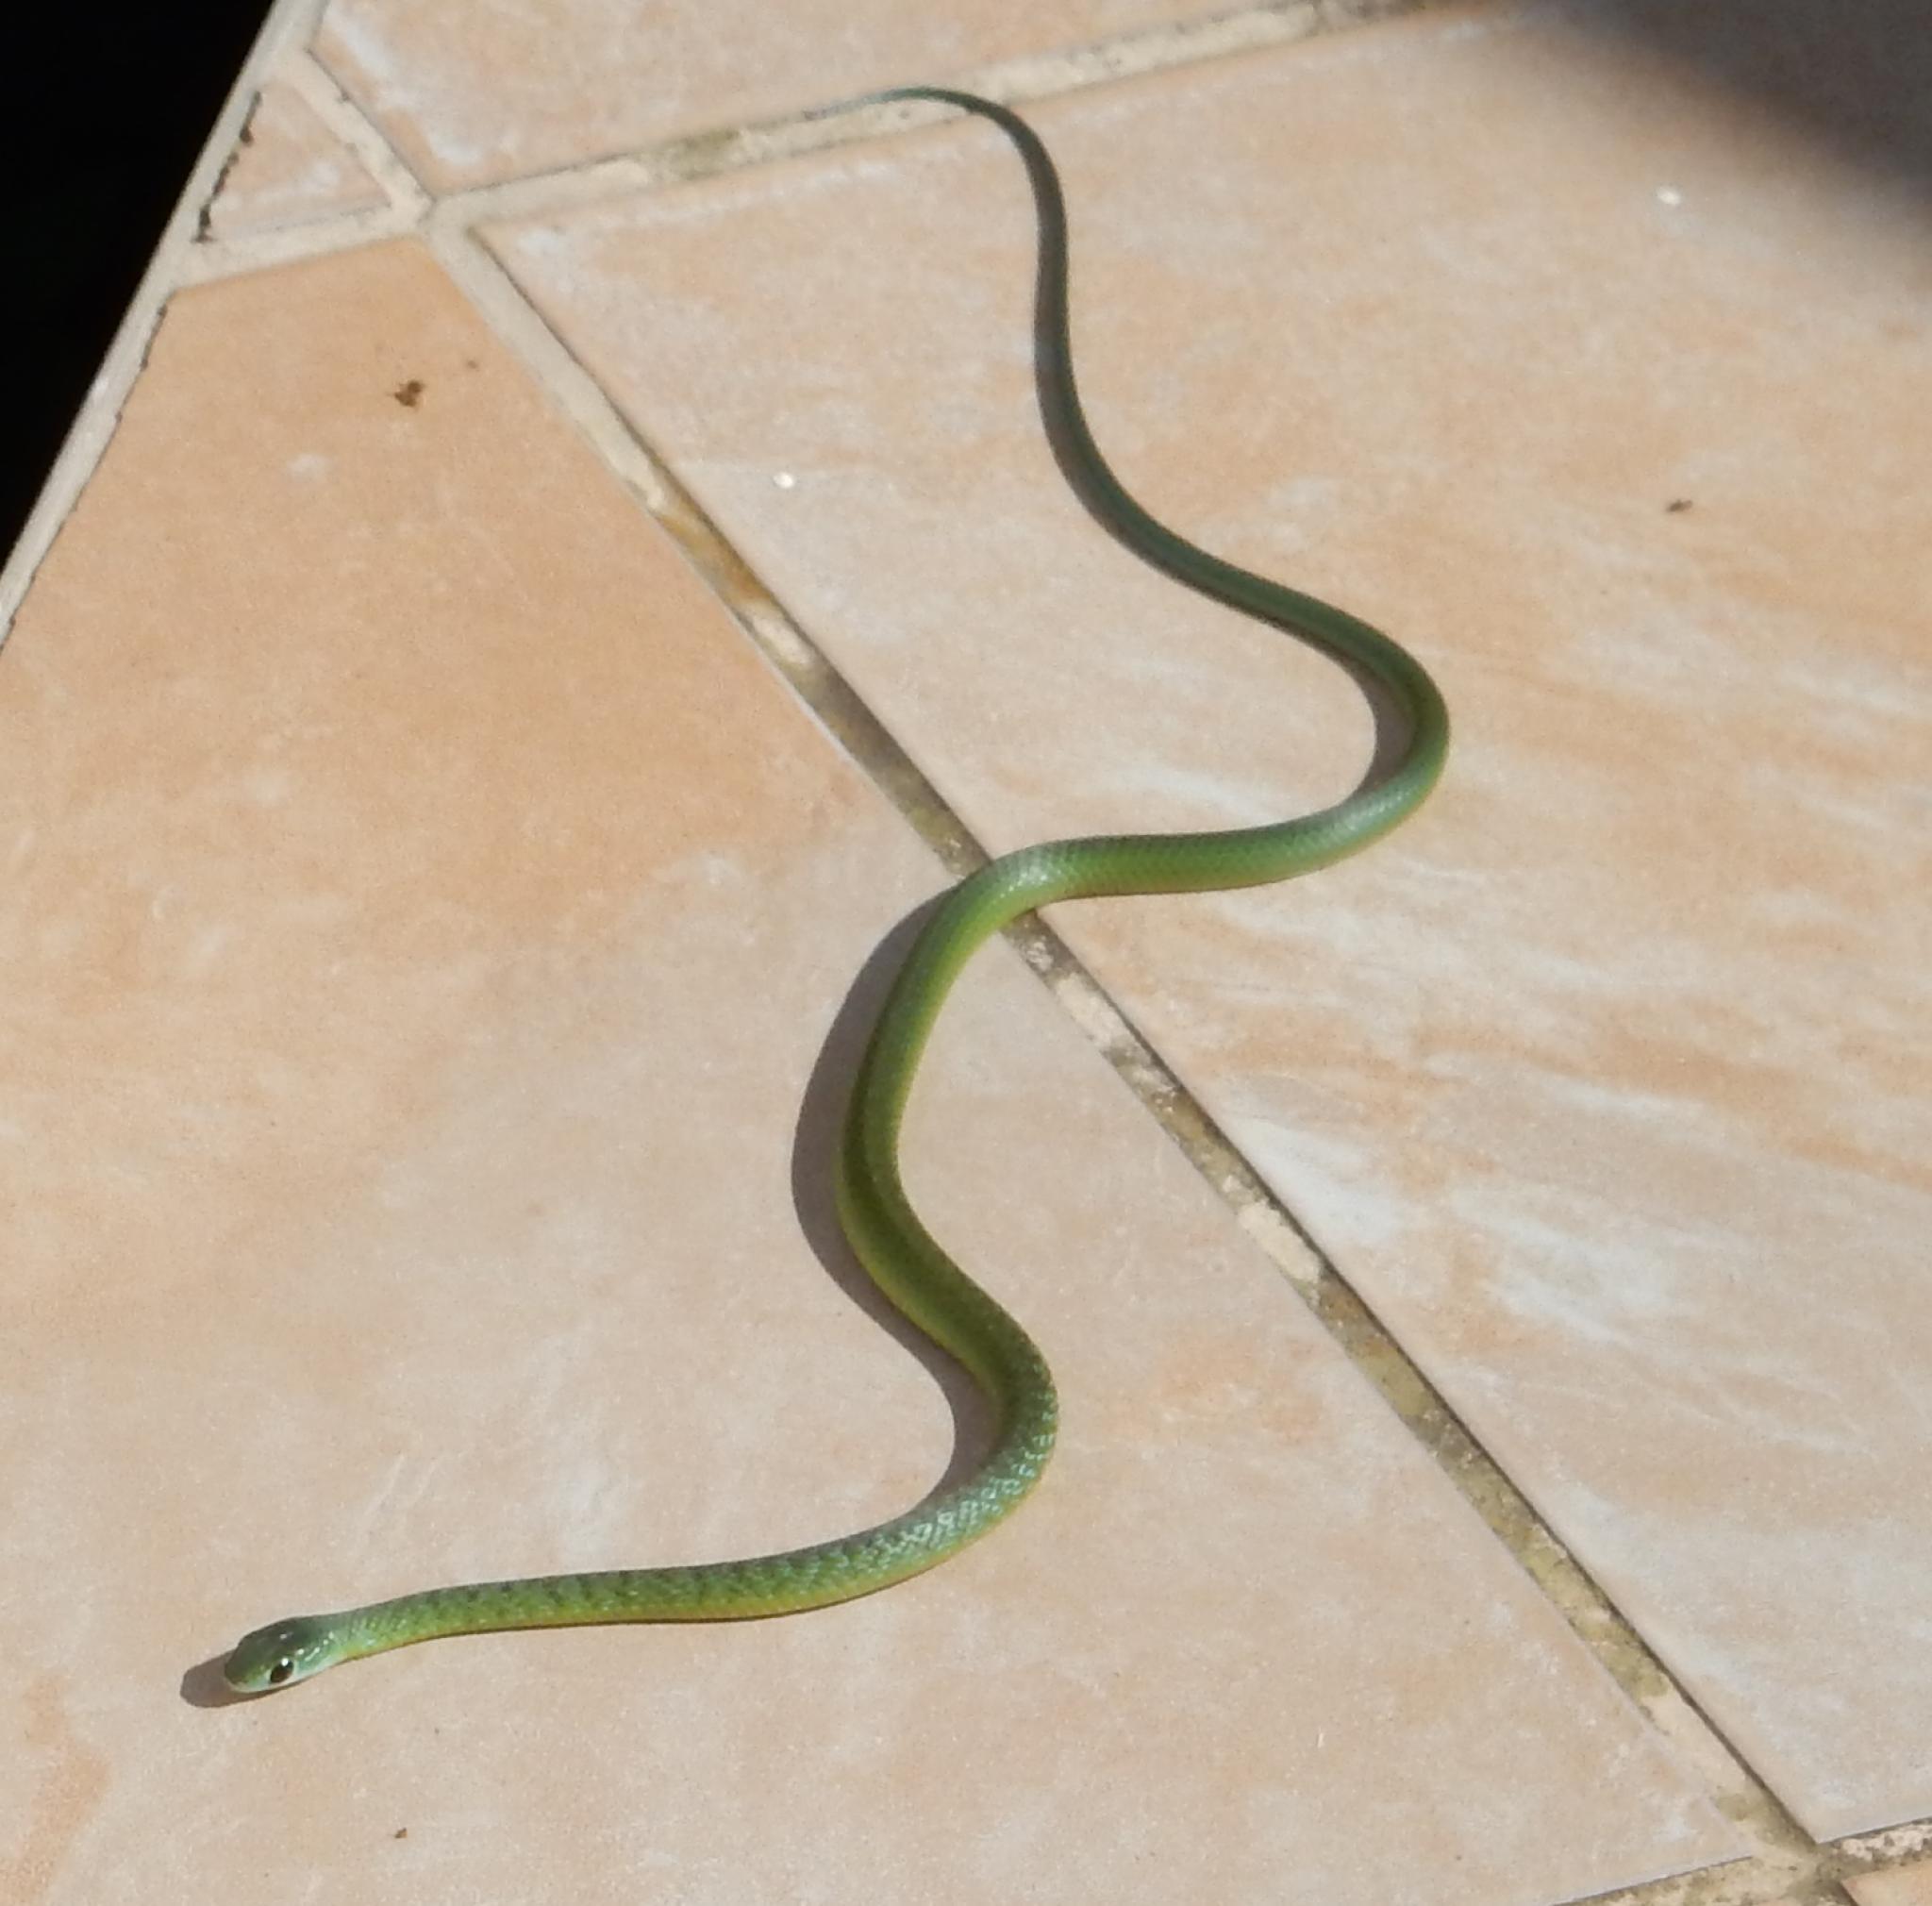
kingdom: Animalia
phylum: Chordata
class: Squamata
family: Colubridae
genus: Philothamnus
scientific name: Philothamnus occidentalis
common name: Western natal green snake
